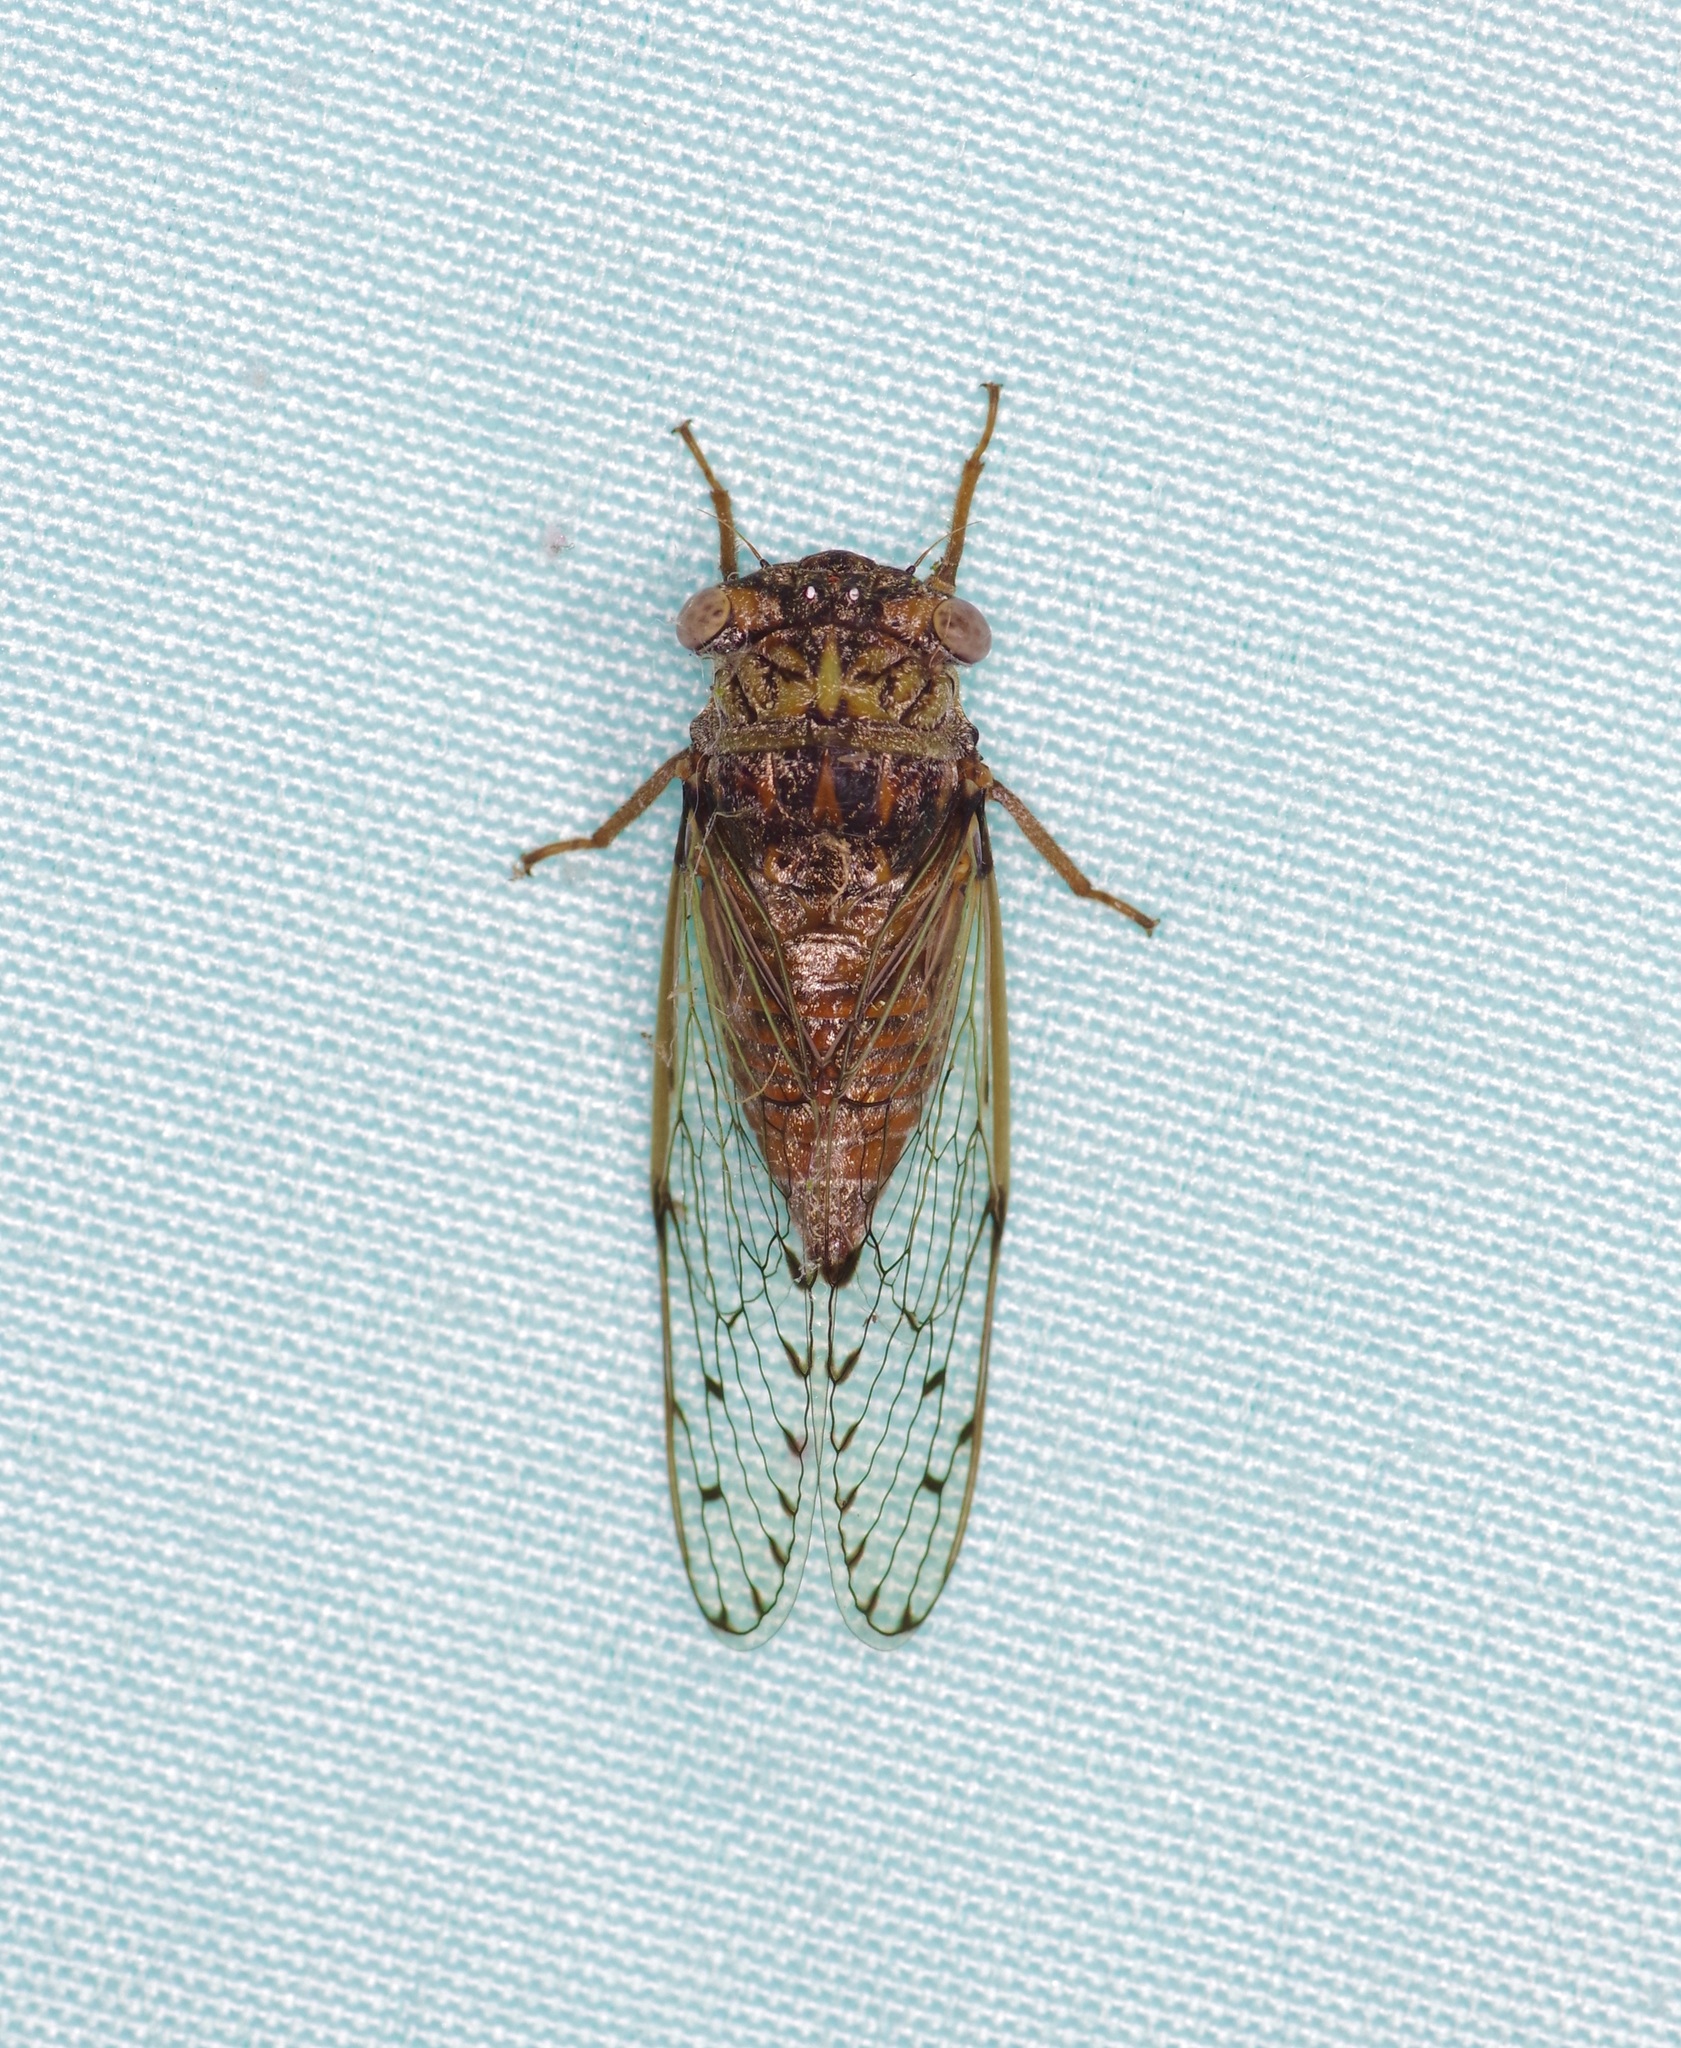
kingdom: Animalia
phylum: Arthropoda
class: Insecta
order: Hemiptera
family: Cicadidae
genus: Pacarina
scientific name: Pacarina puella
